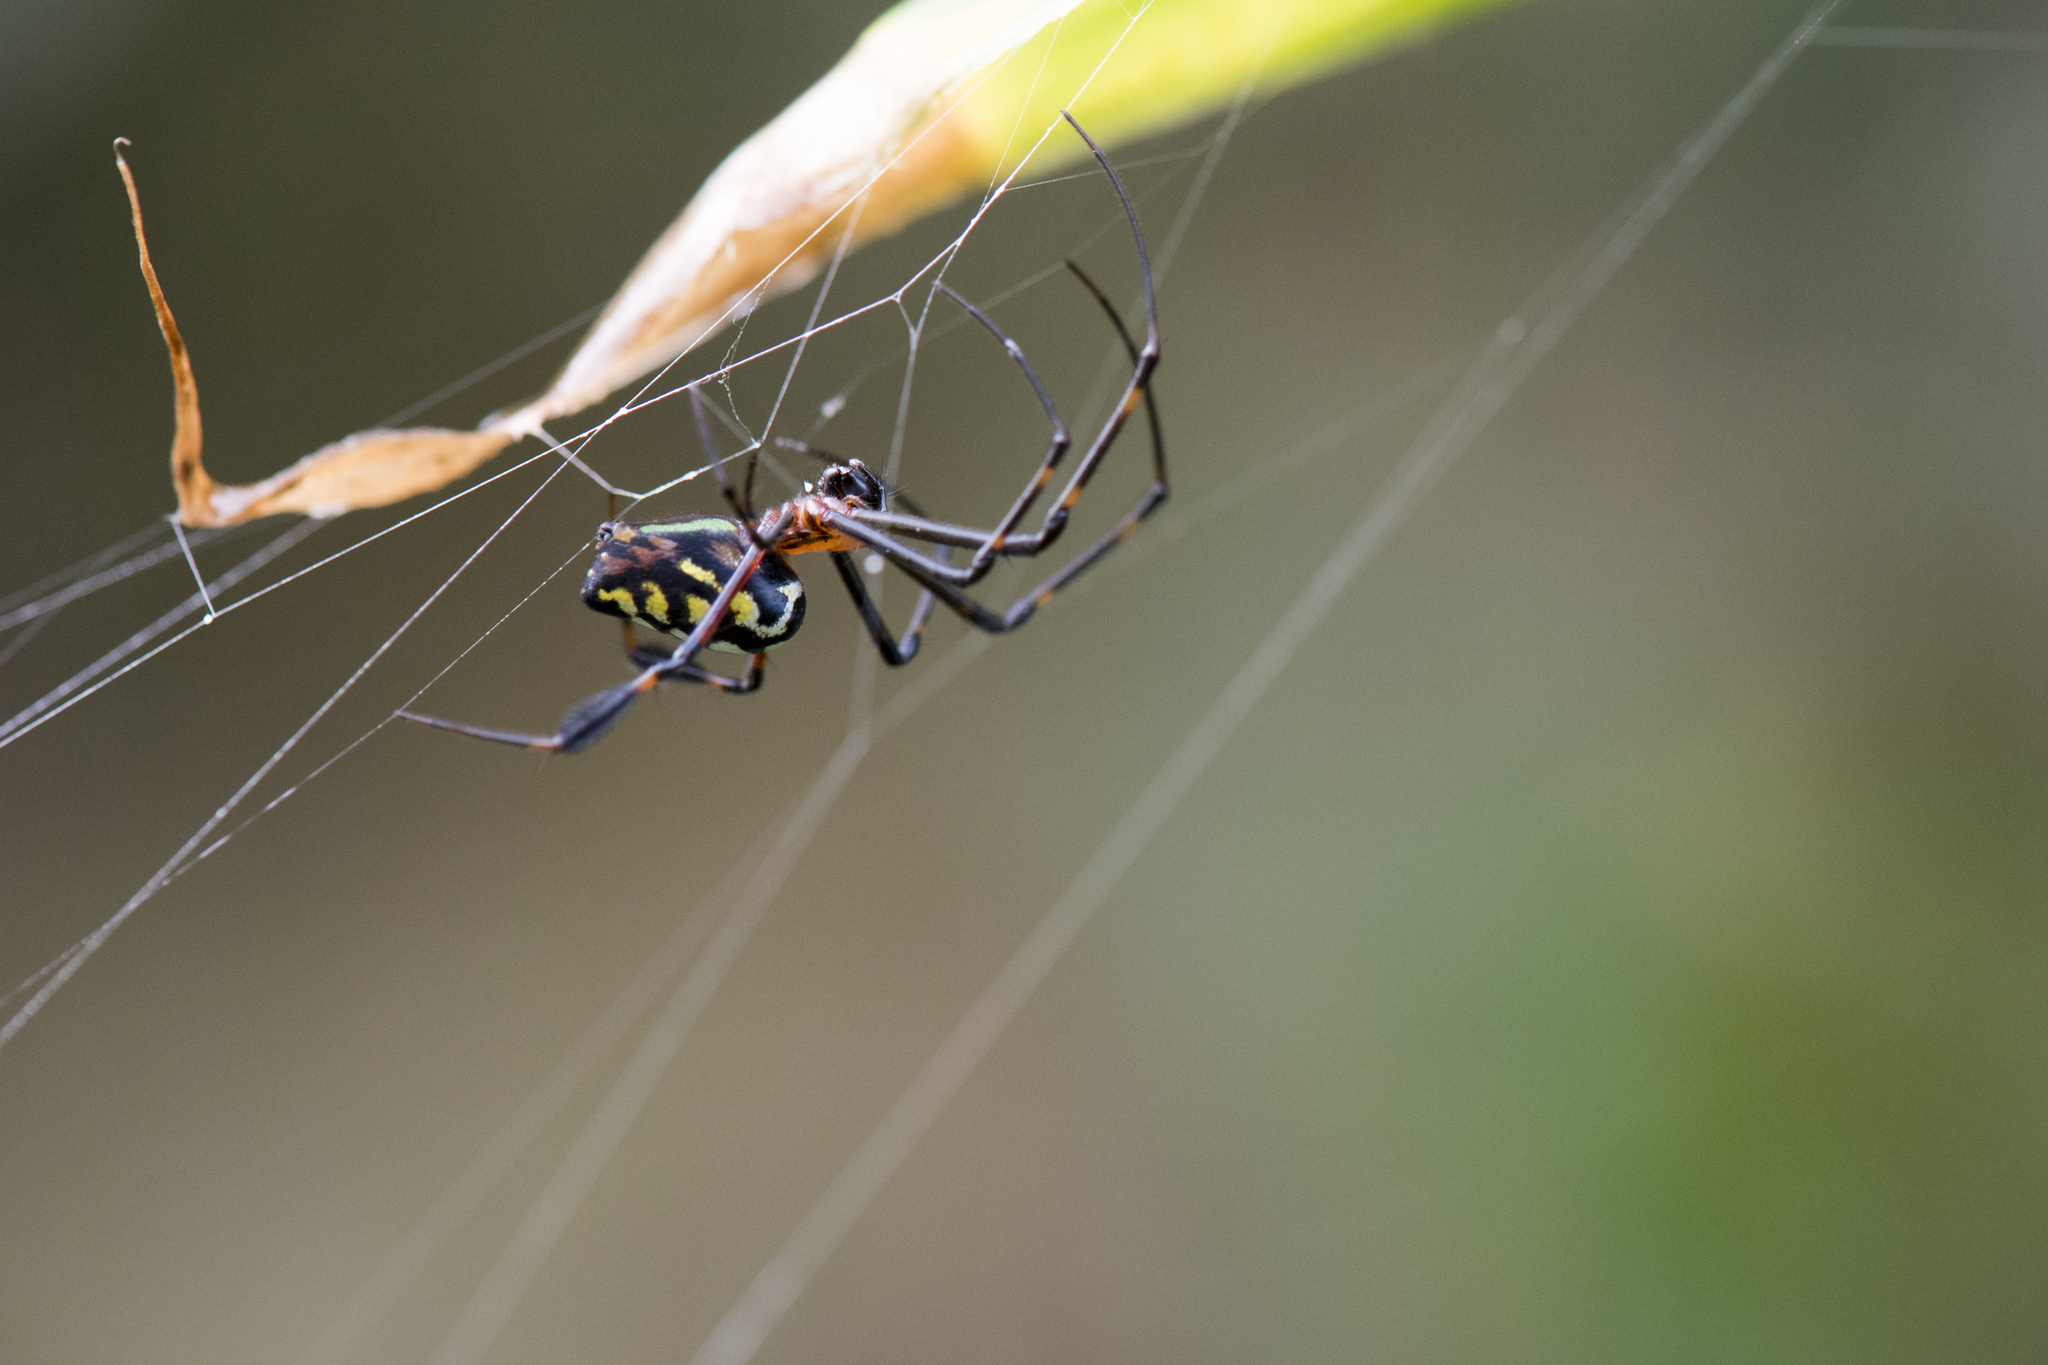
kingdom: Animalia
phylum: Arthropoda
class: Arachnida
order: Araneae
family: Tetragnathidae
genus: Leucauge
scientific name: Leucauge tessellata
